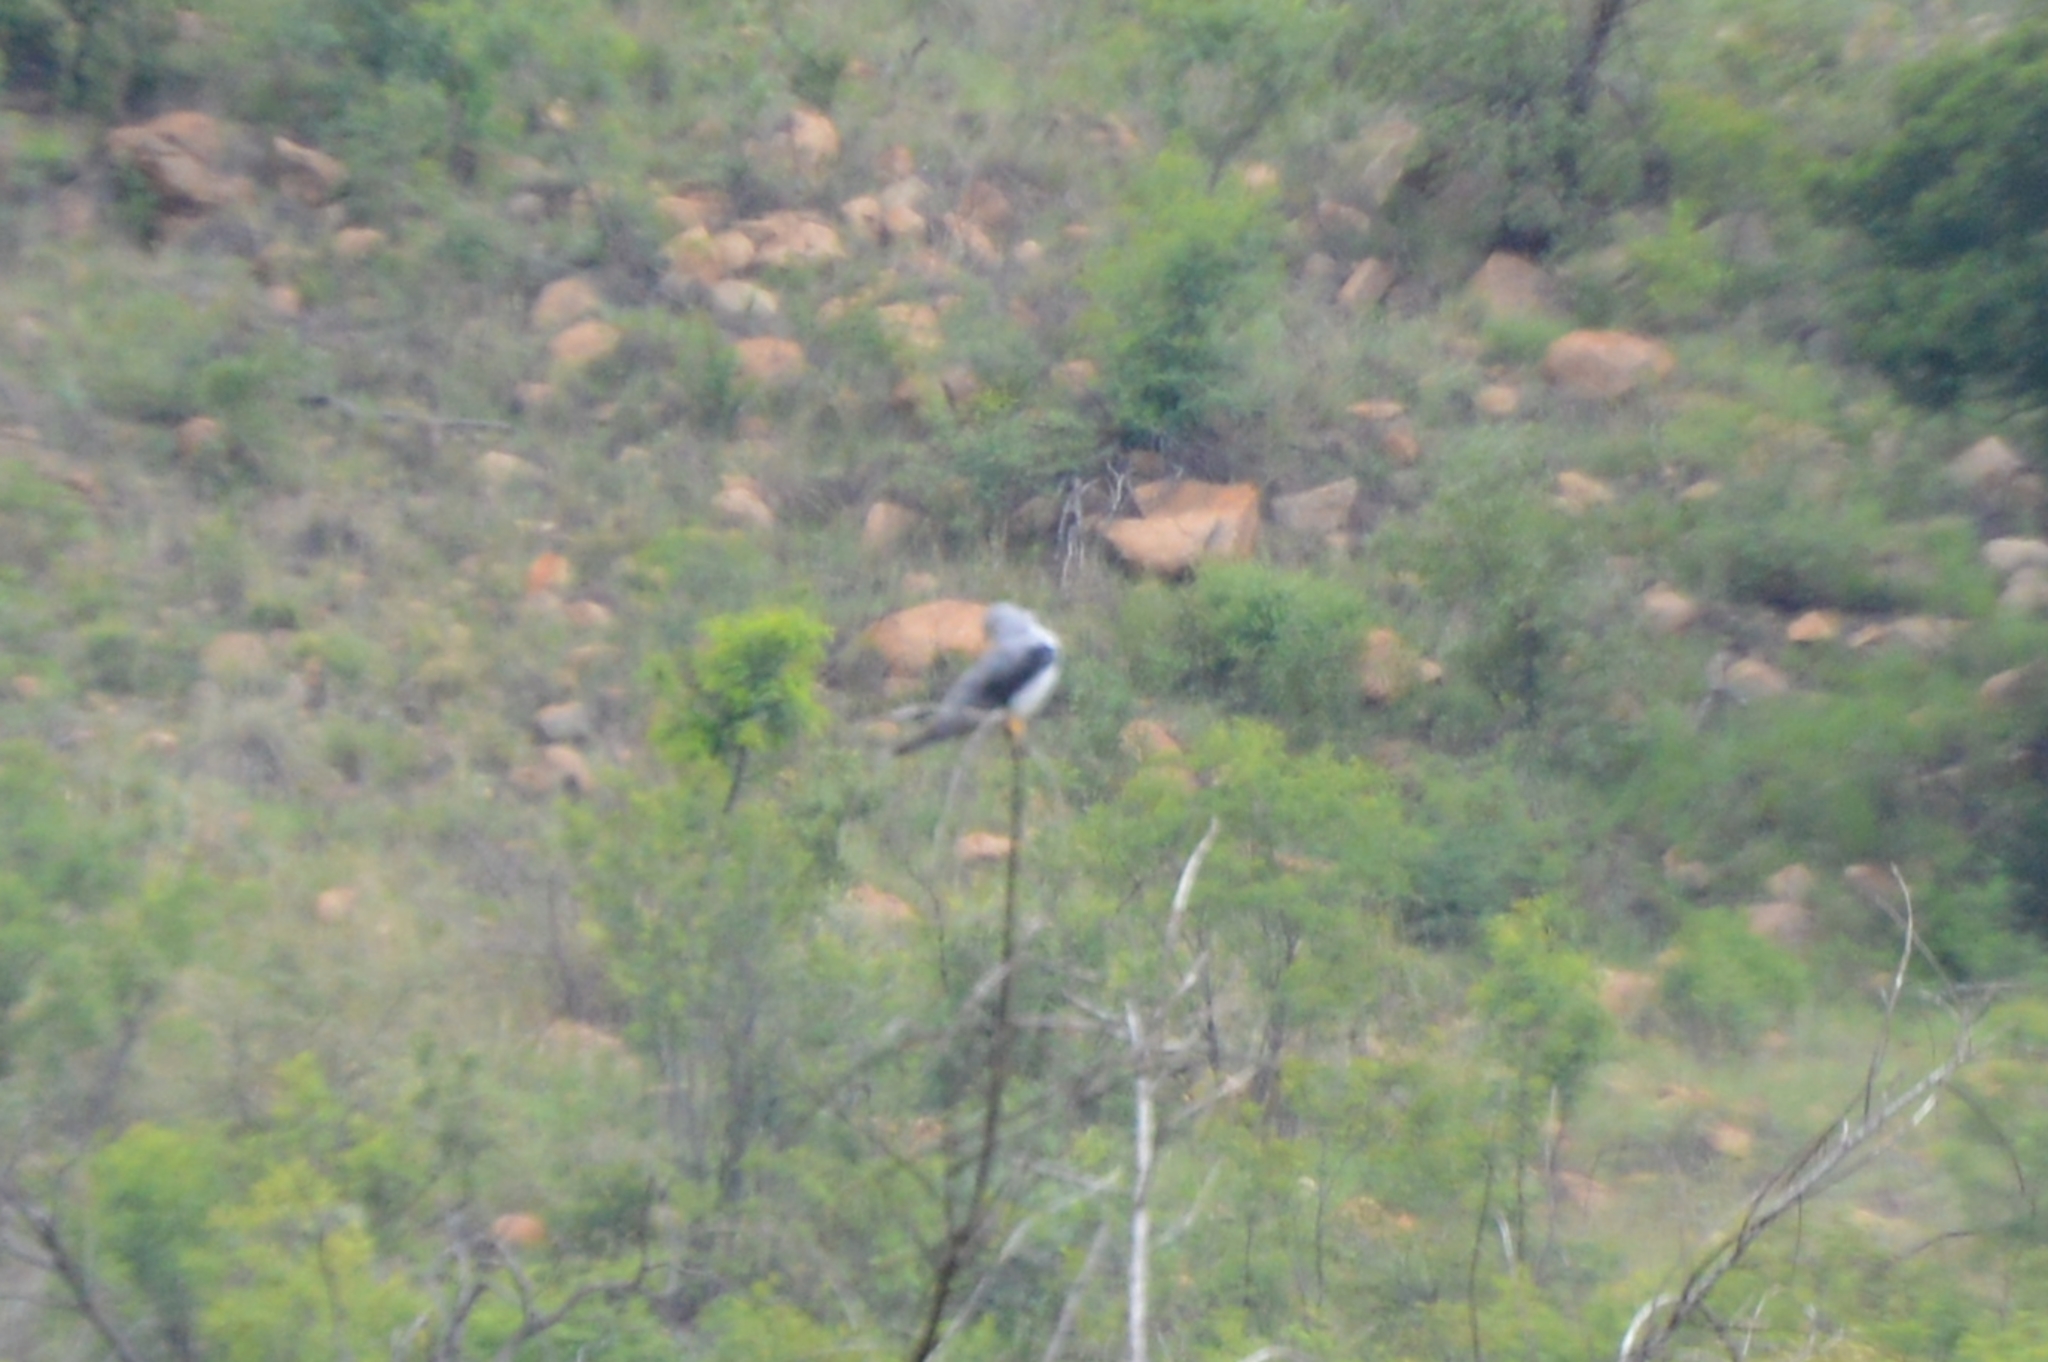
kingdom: Animalia
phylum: Chordata
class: Aves
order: Accipitriformes
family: Accipitridae
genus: Elanus
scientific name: Elanus caeruleus
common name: Black-winged kite
